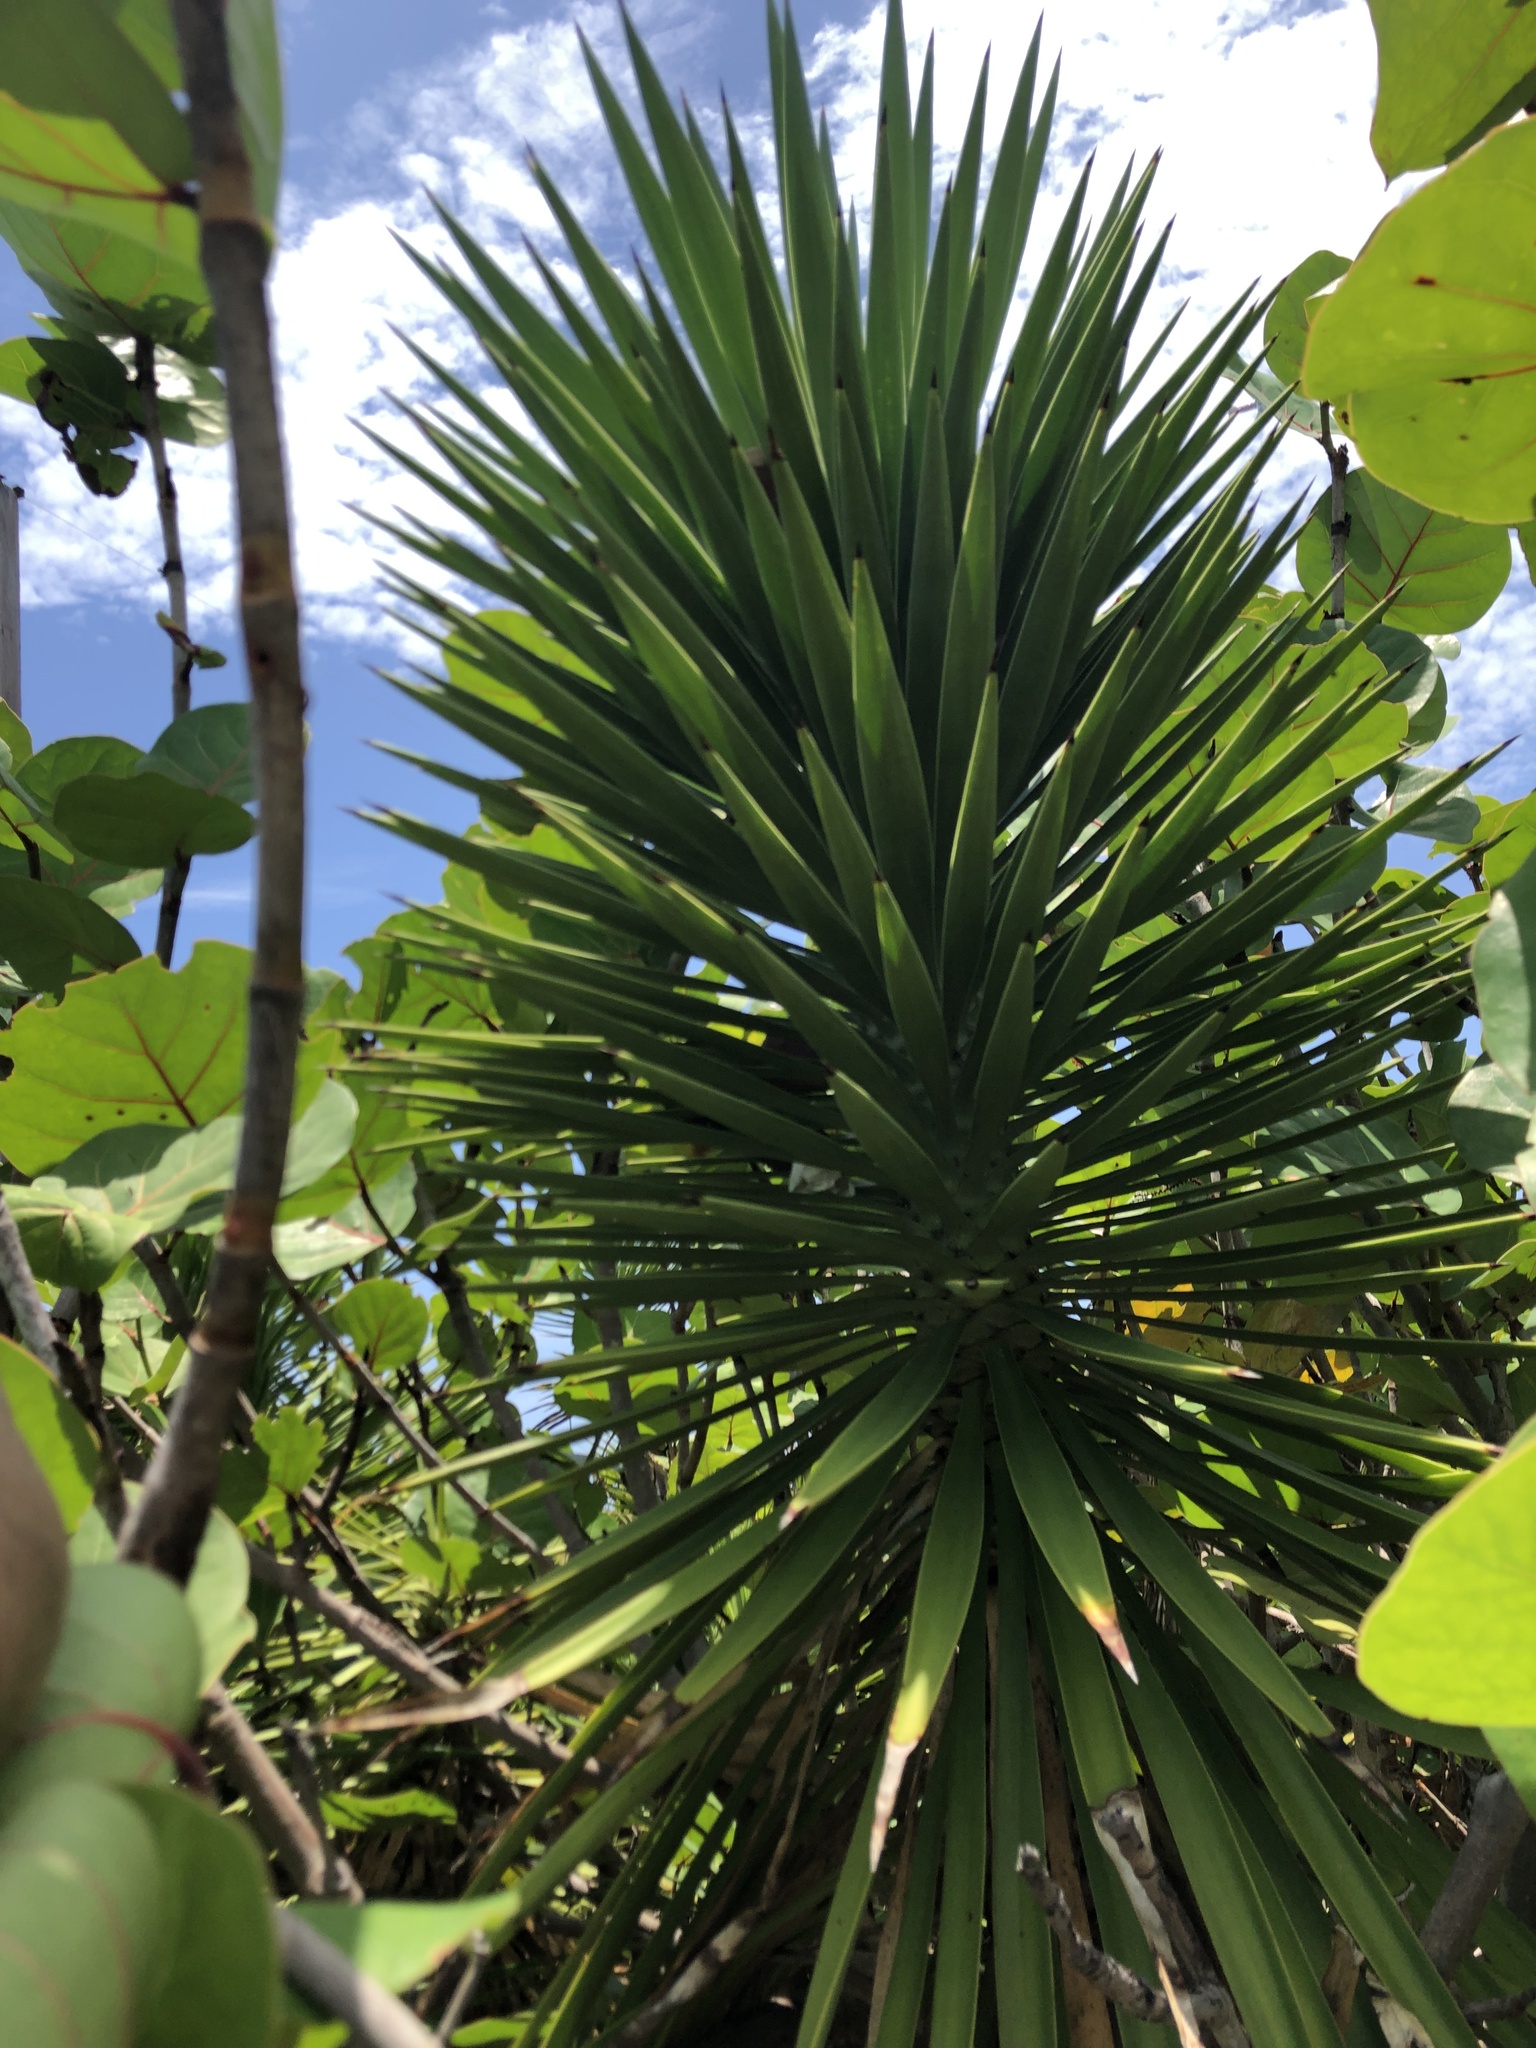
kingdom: Plantae
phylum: Tracheophyta
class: Liliopsida
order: Asparagales
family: Asparagaceae
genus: Yucca
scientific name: Yucca aloifolia
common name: Aloe yucca
